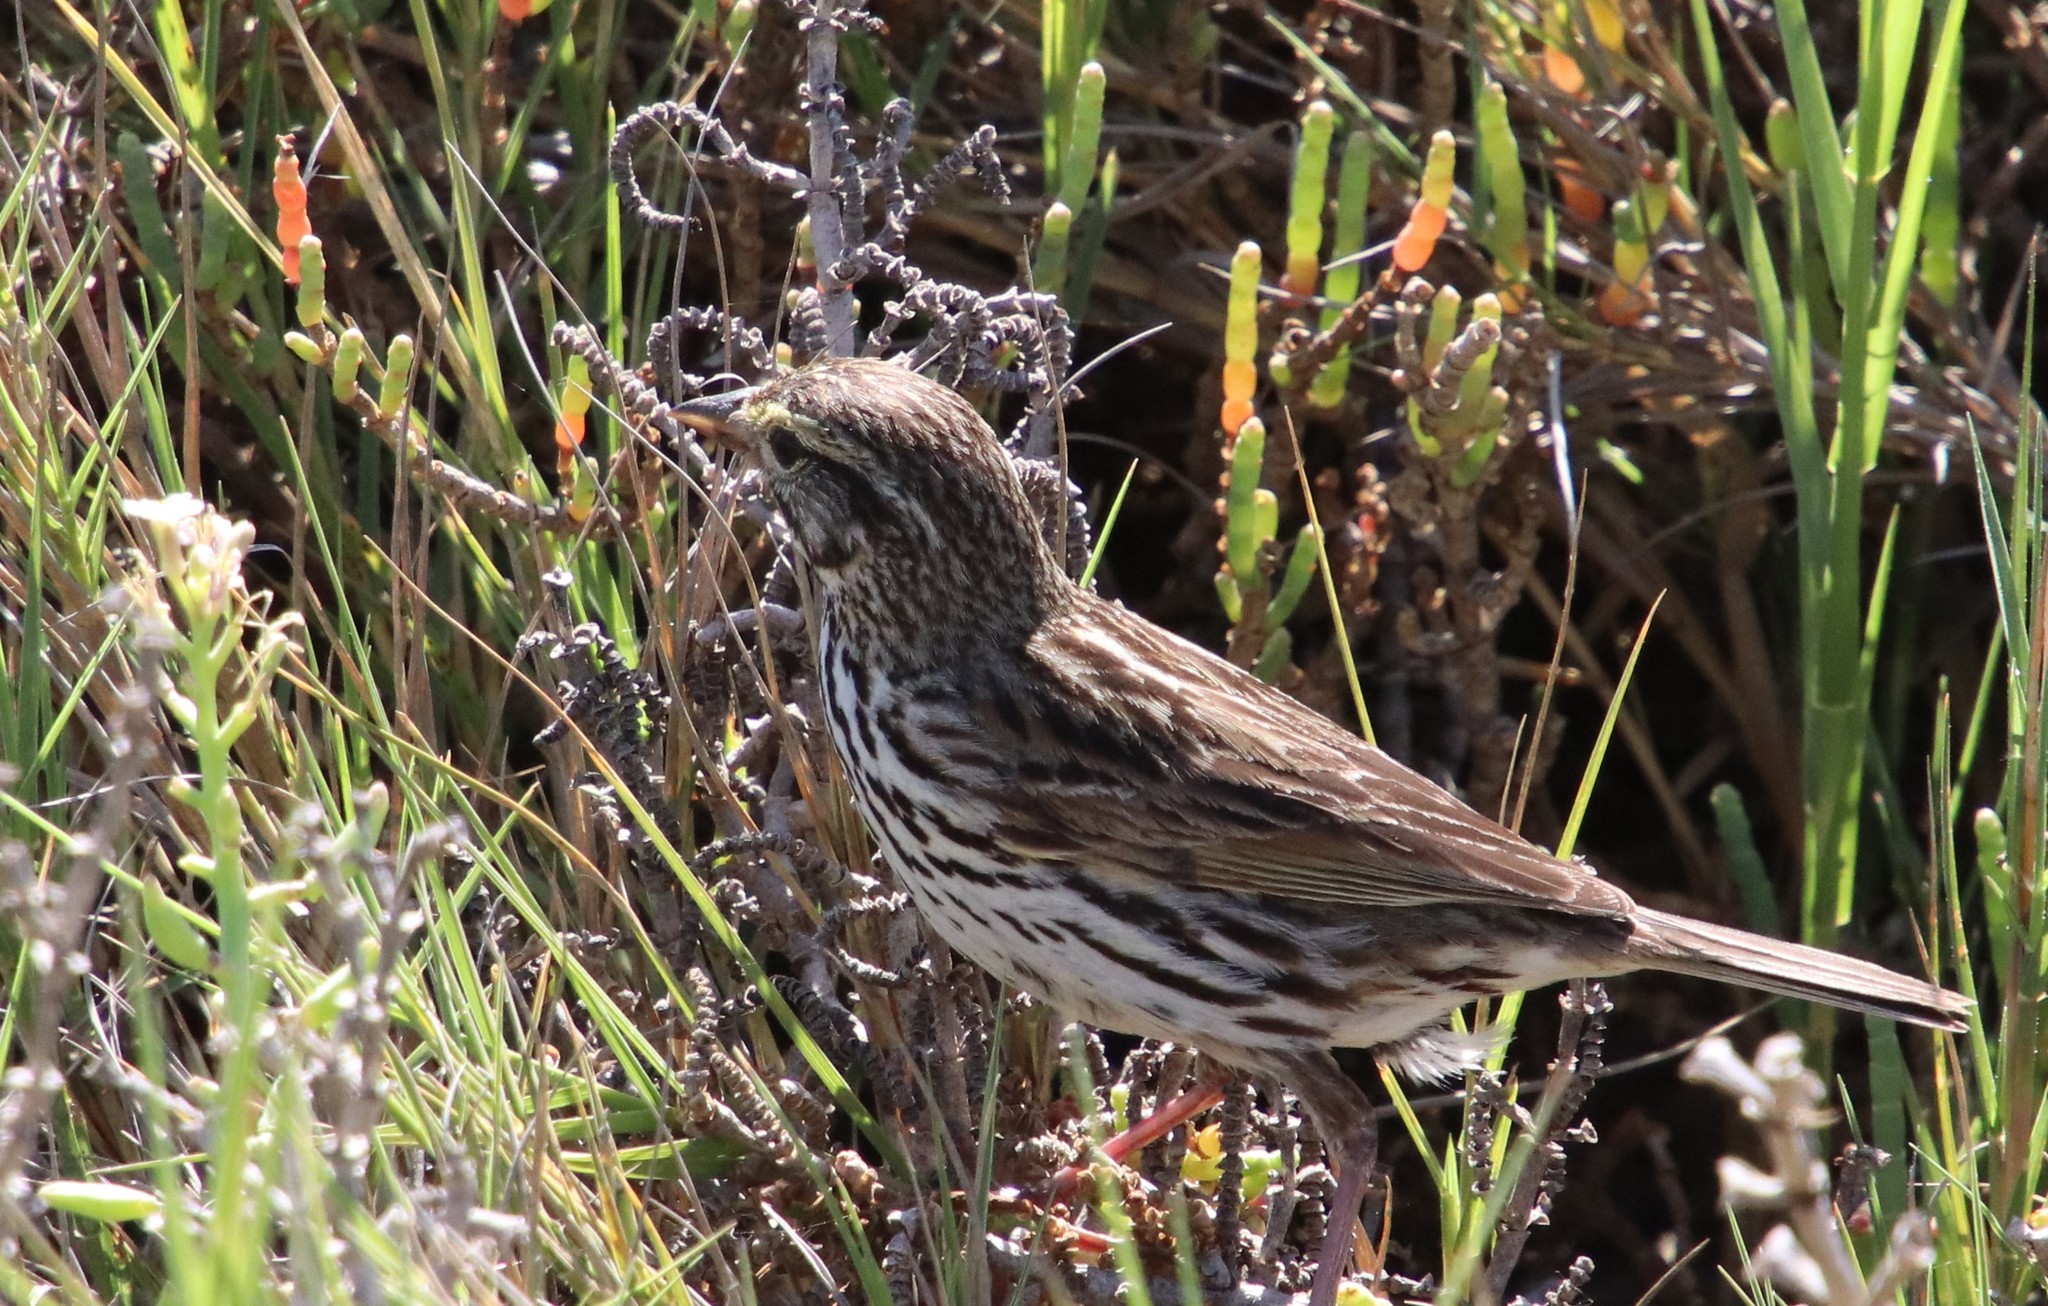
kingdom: Animalia
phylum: Chordata
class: Aves
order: Passeriformes
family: Passerellidae
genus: Passerculus
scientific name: Passerculus sandwichensis
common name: Savannah sparrow
